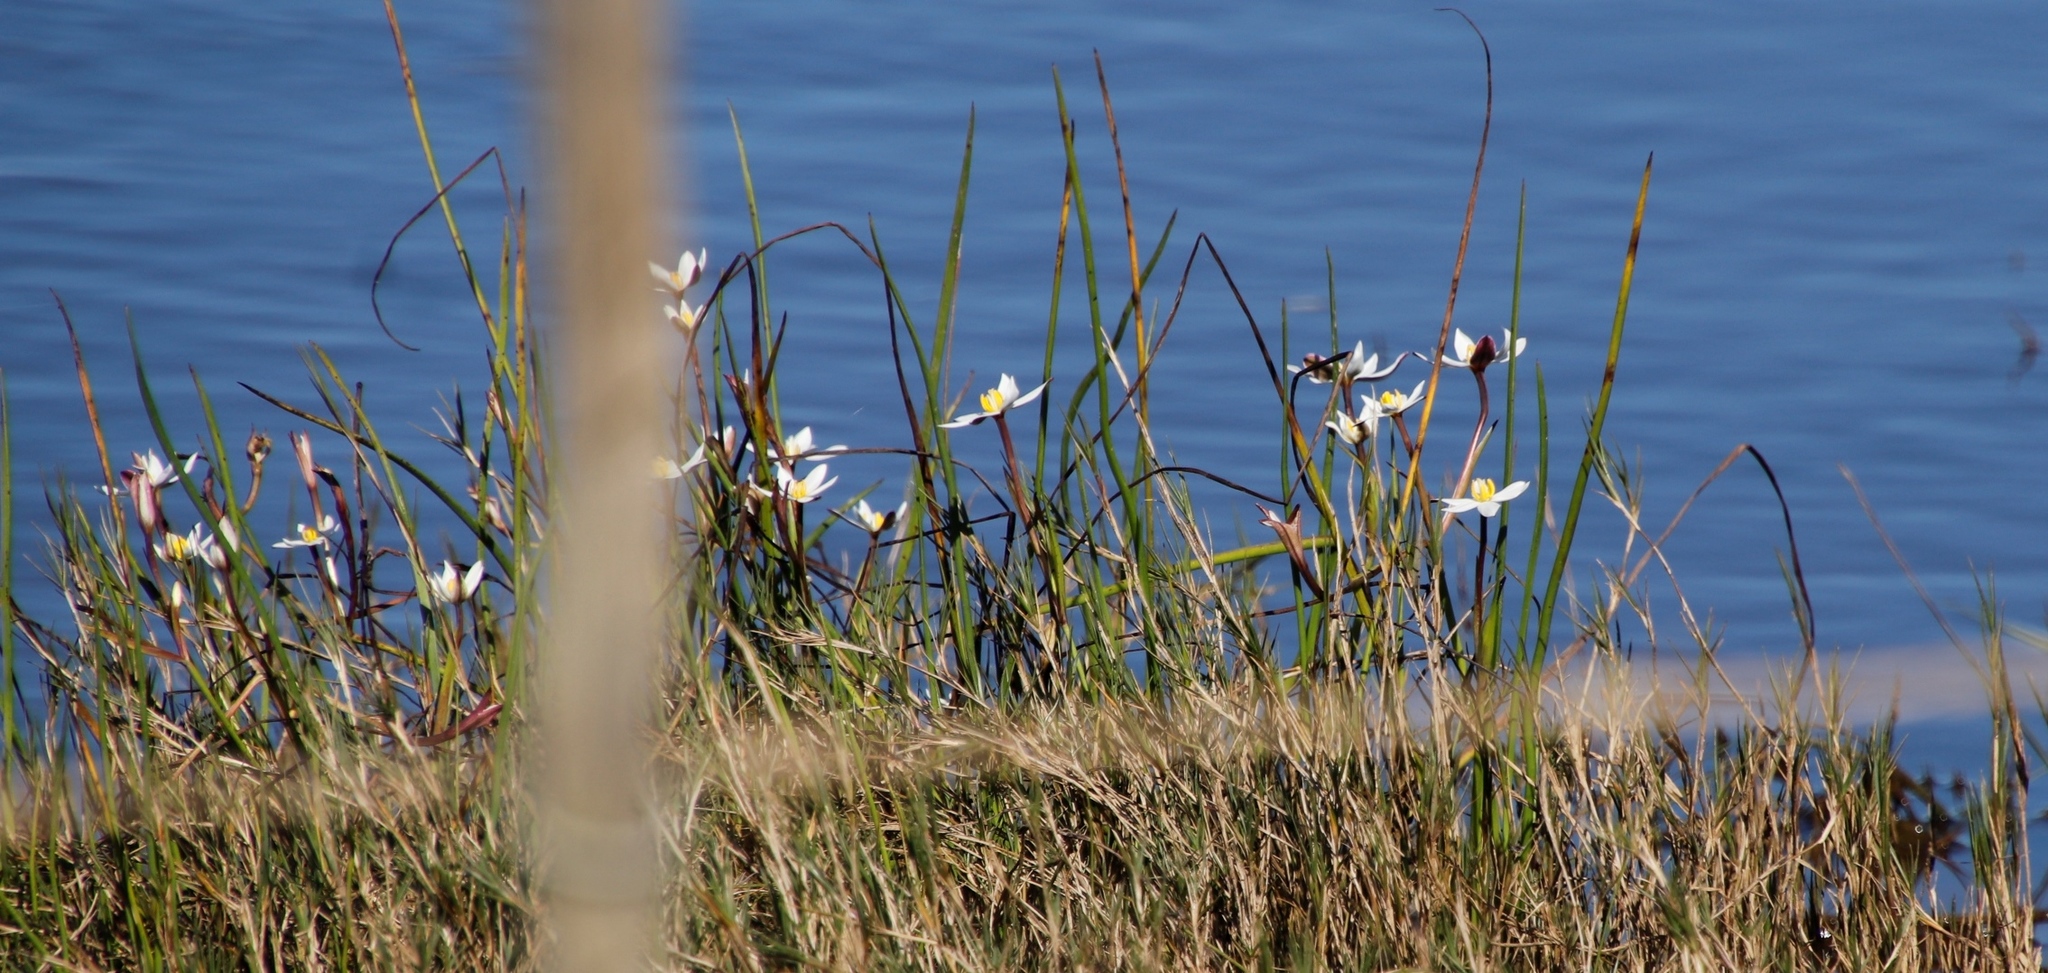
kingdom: Plantae
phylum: Tracheophyta
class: Liliopsida
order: Asparagales
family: Hypoxidaceae
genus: Pauridia
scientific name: Pauridia aquatica
